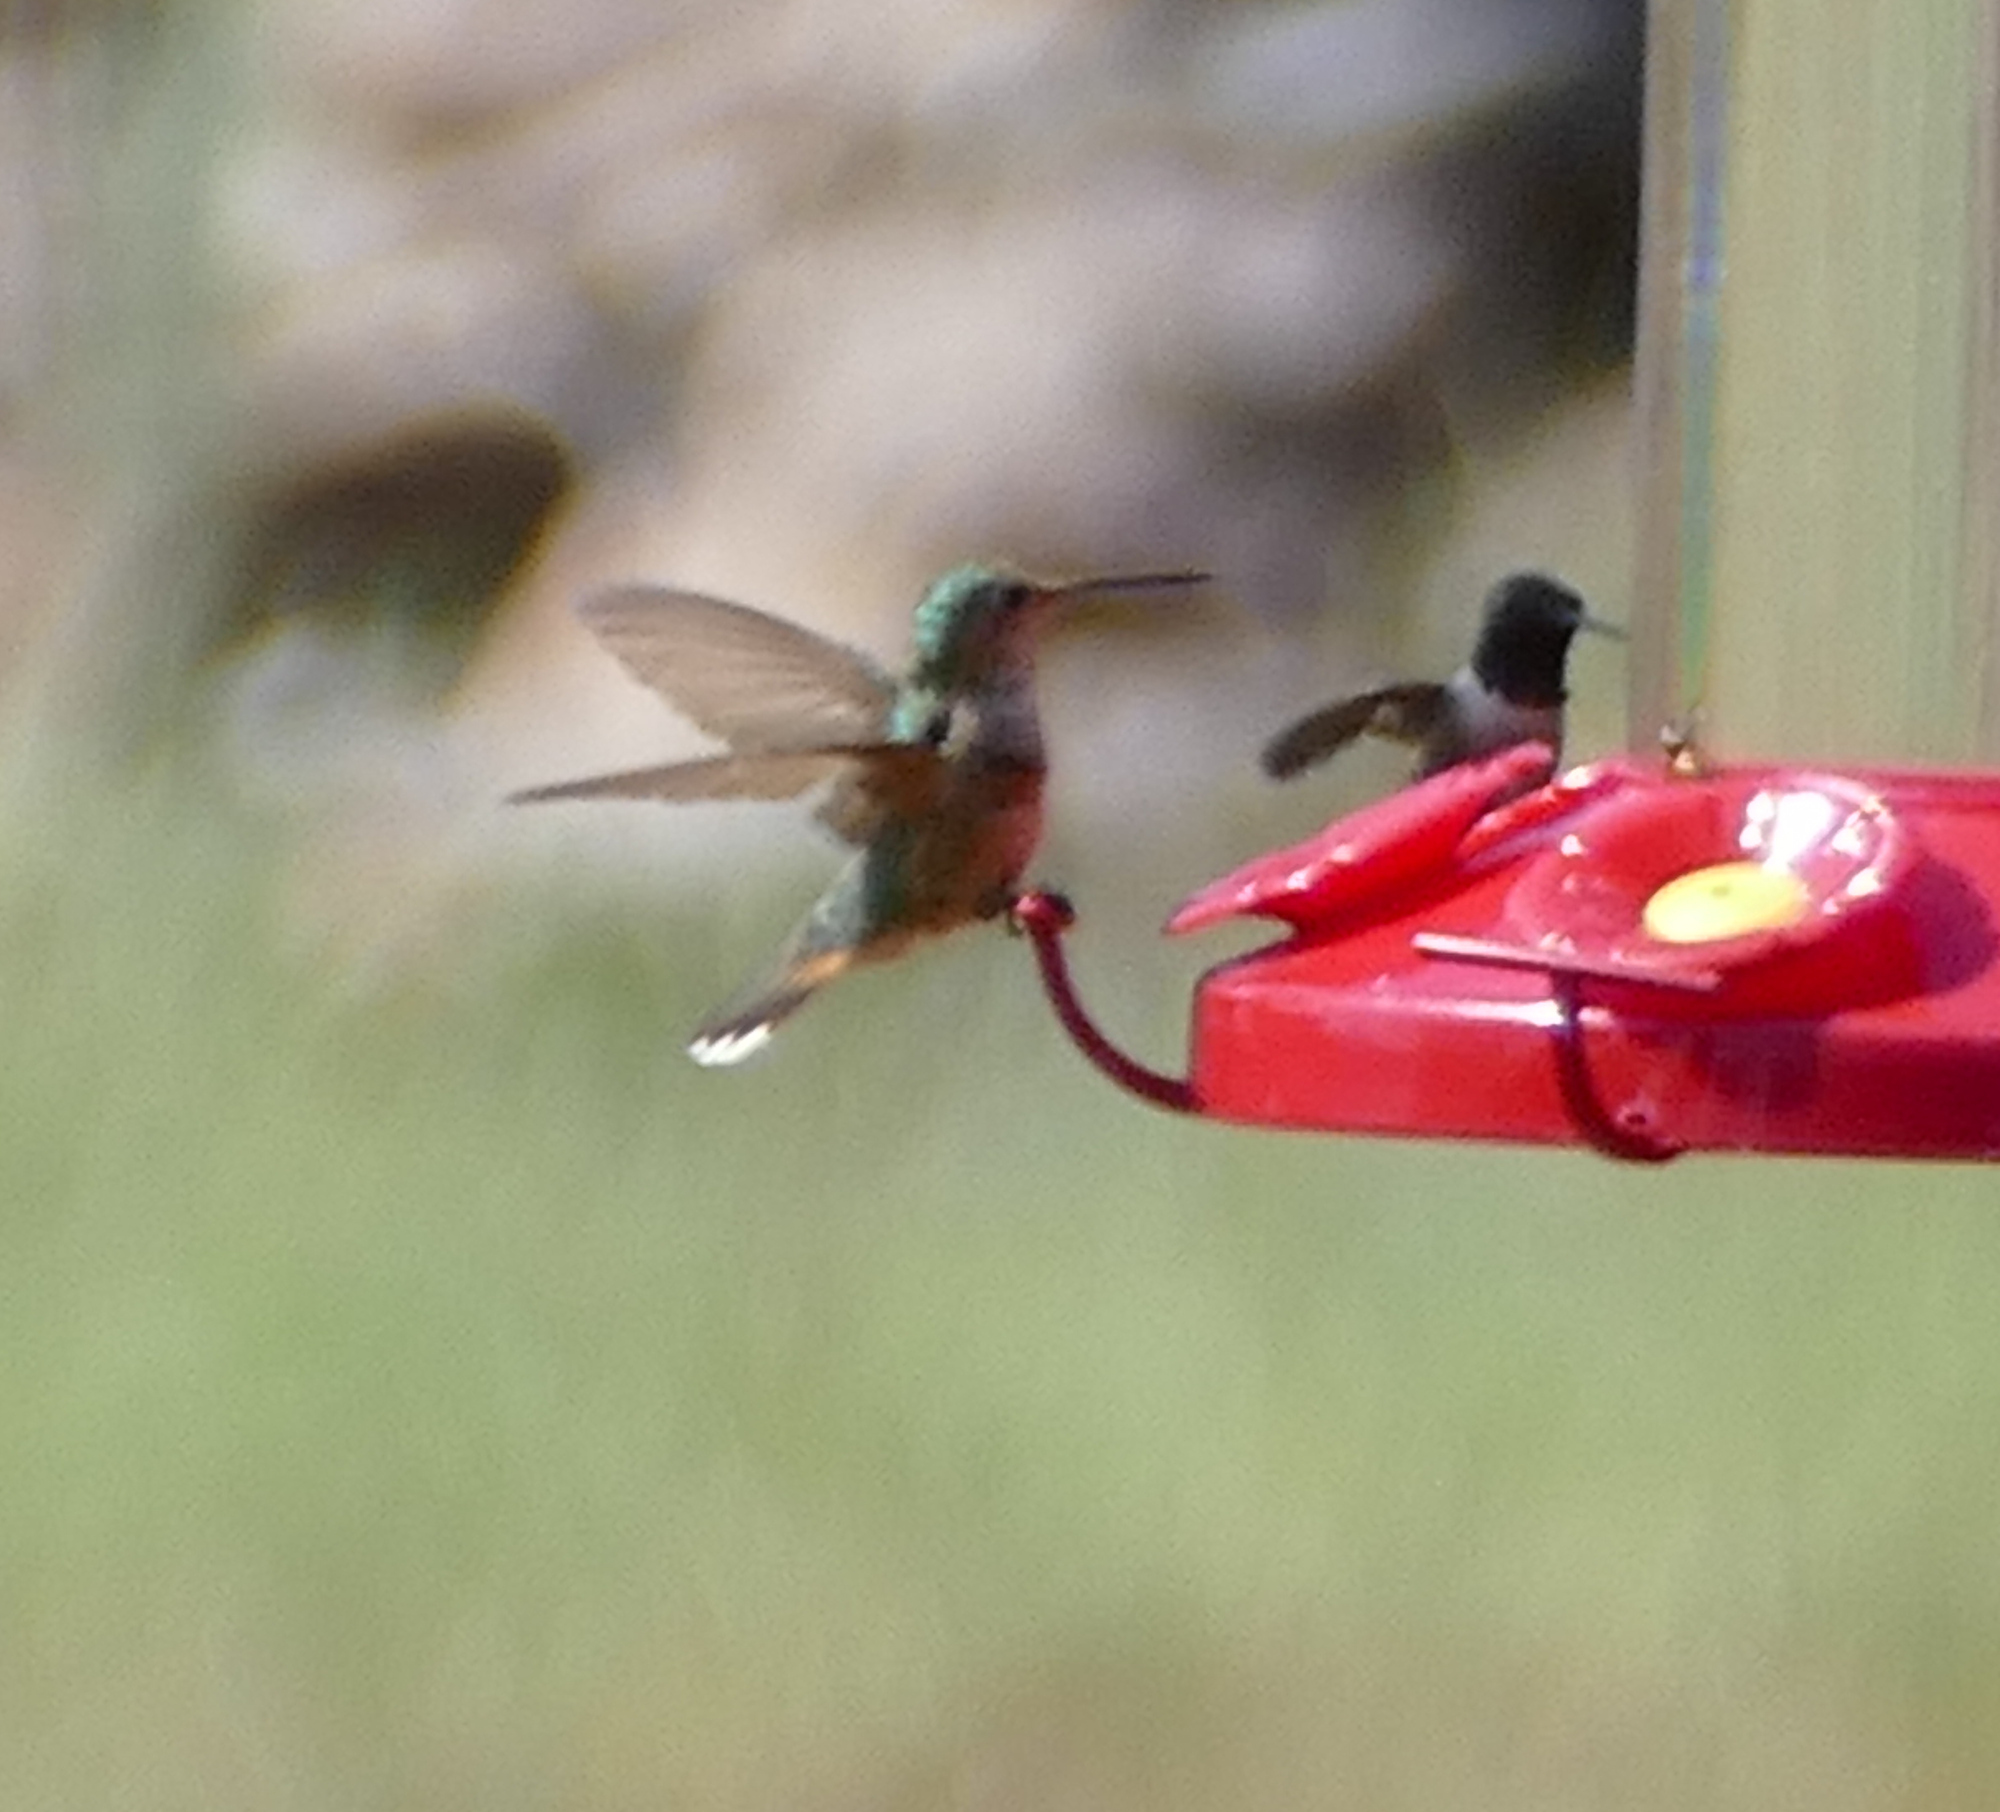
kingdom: Animalia
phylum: Chordata
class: Aves
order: Apodiformes
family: Trochilidae
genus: Selasphorus
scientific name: Selasphorus platycercus
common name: Broad-tailed hummingbird
